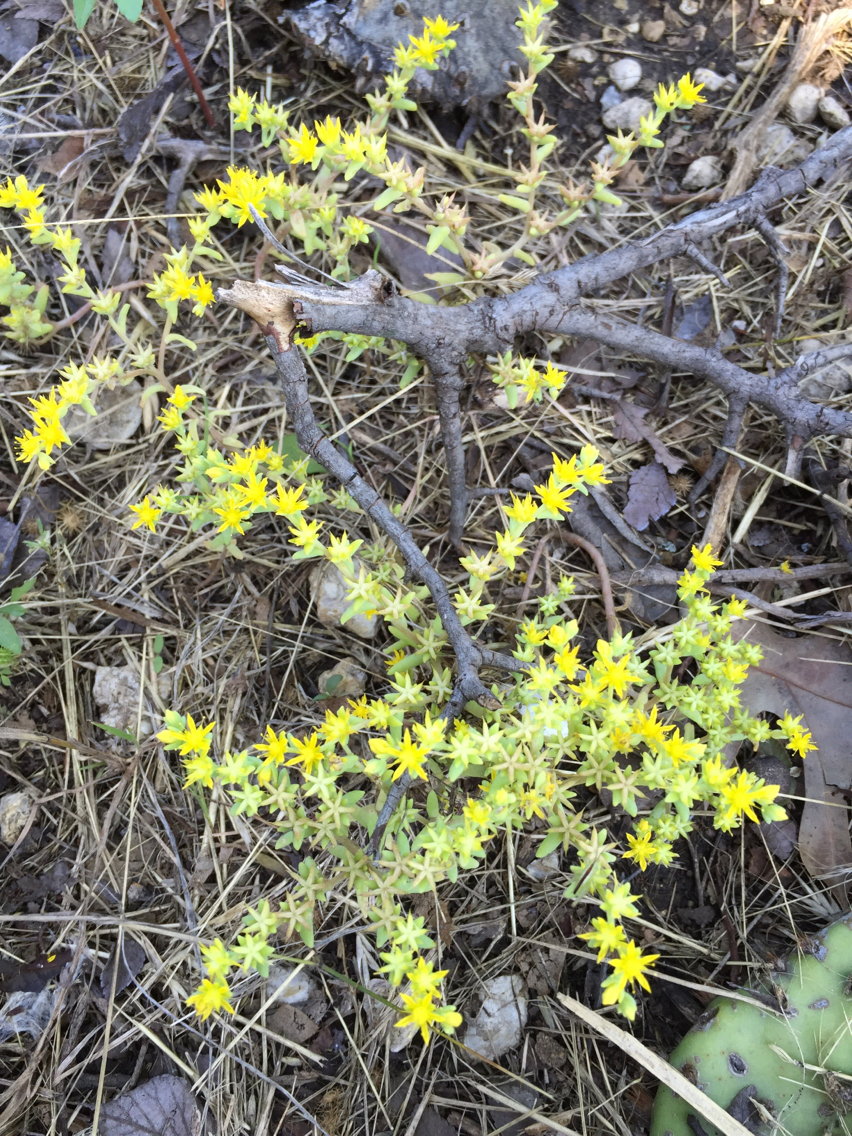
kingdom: Plantae
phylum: Tracheophyta
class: Magnoliopsida
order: Saxifragales
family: Crassulaceae
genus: Sedum
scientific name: Sedum nuttallii
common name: Yellow stonecrop
